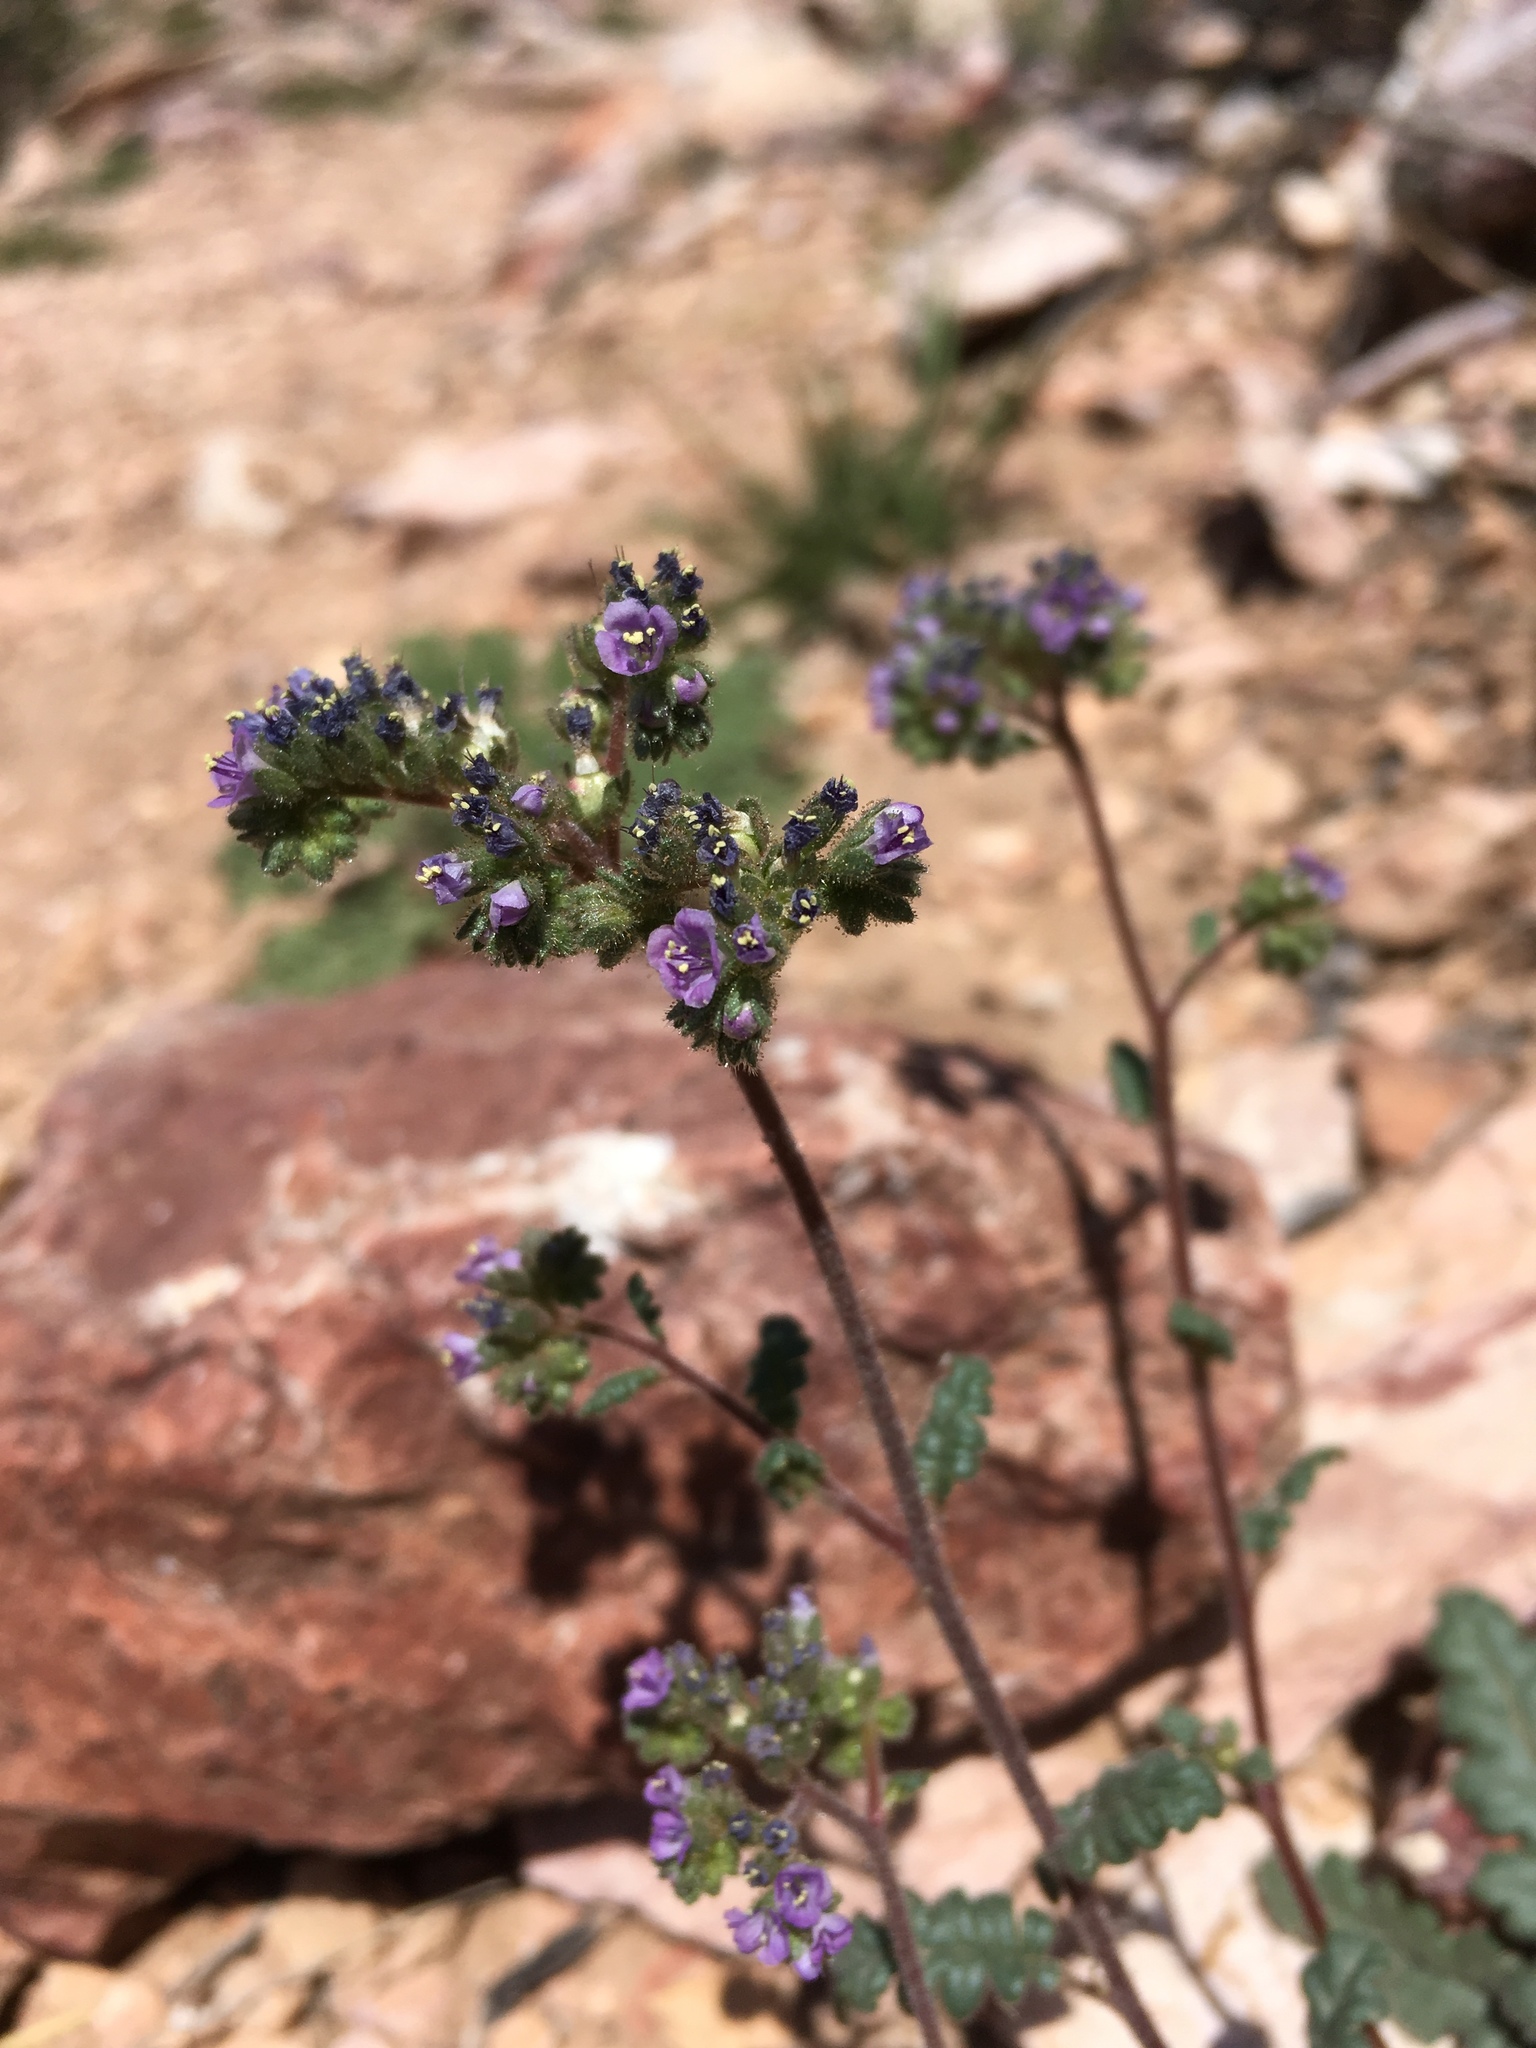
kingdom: Plantae
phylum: Tracheophyta
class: Magnoliopsida
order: Boraginales
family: Hydrophyllaceae
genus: Phacelia
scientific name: Phacelia coerulea
